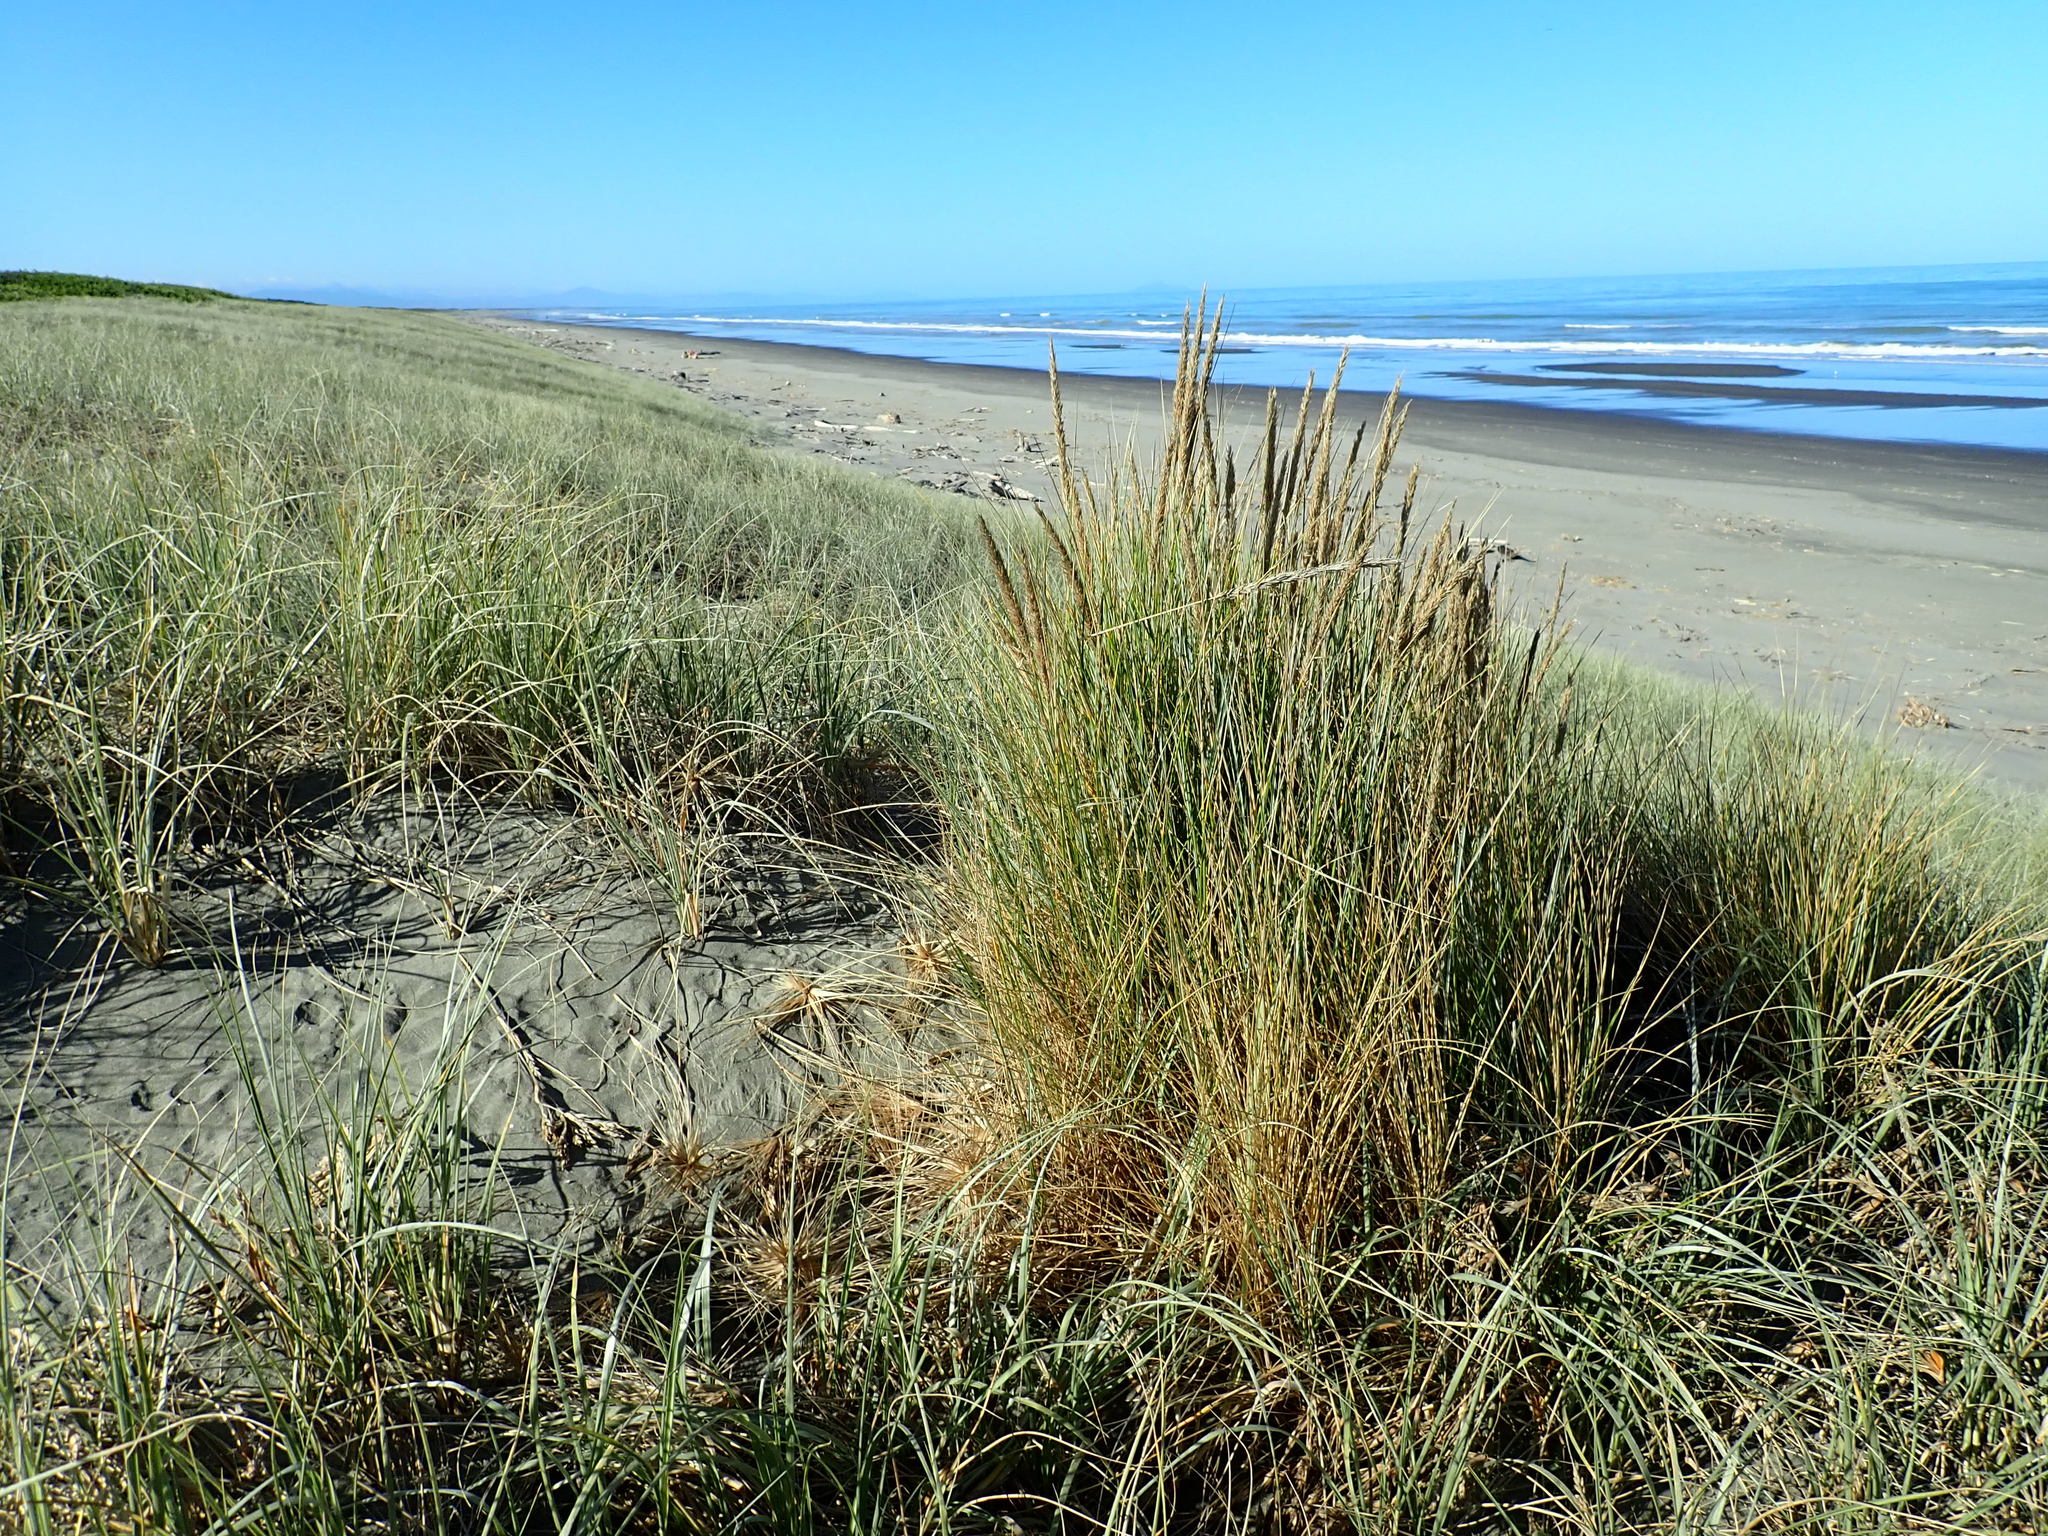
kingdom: Plantae
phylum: Tracheophyta
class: Liliopsida
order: Poales
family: Poaceae
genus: Calamagrostis
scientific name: Calamagrostis arenaria
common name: European beachgrass
